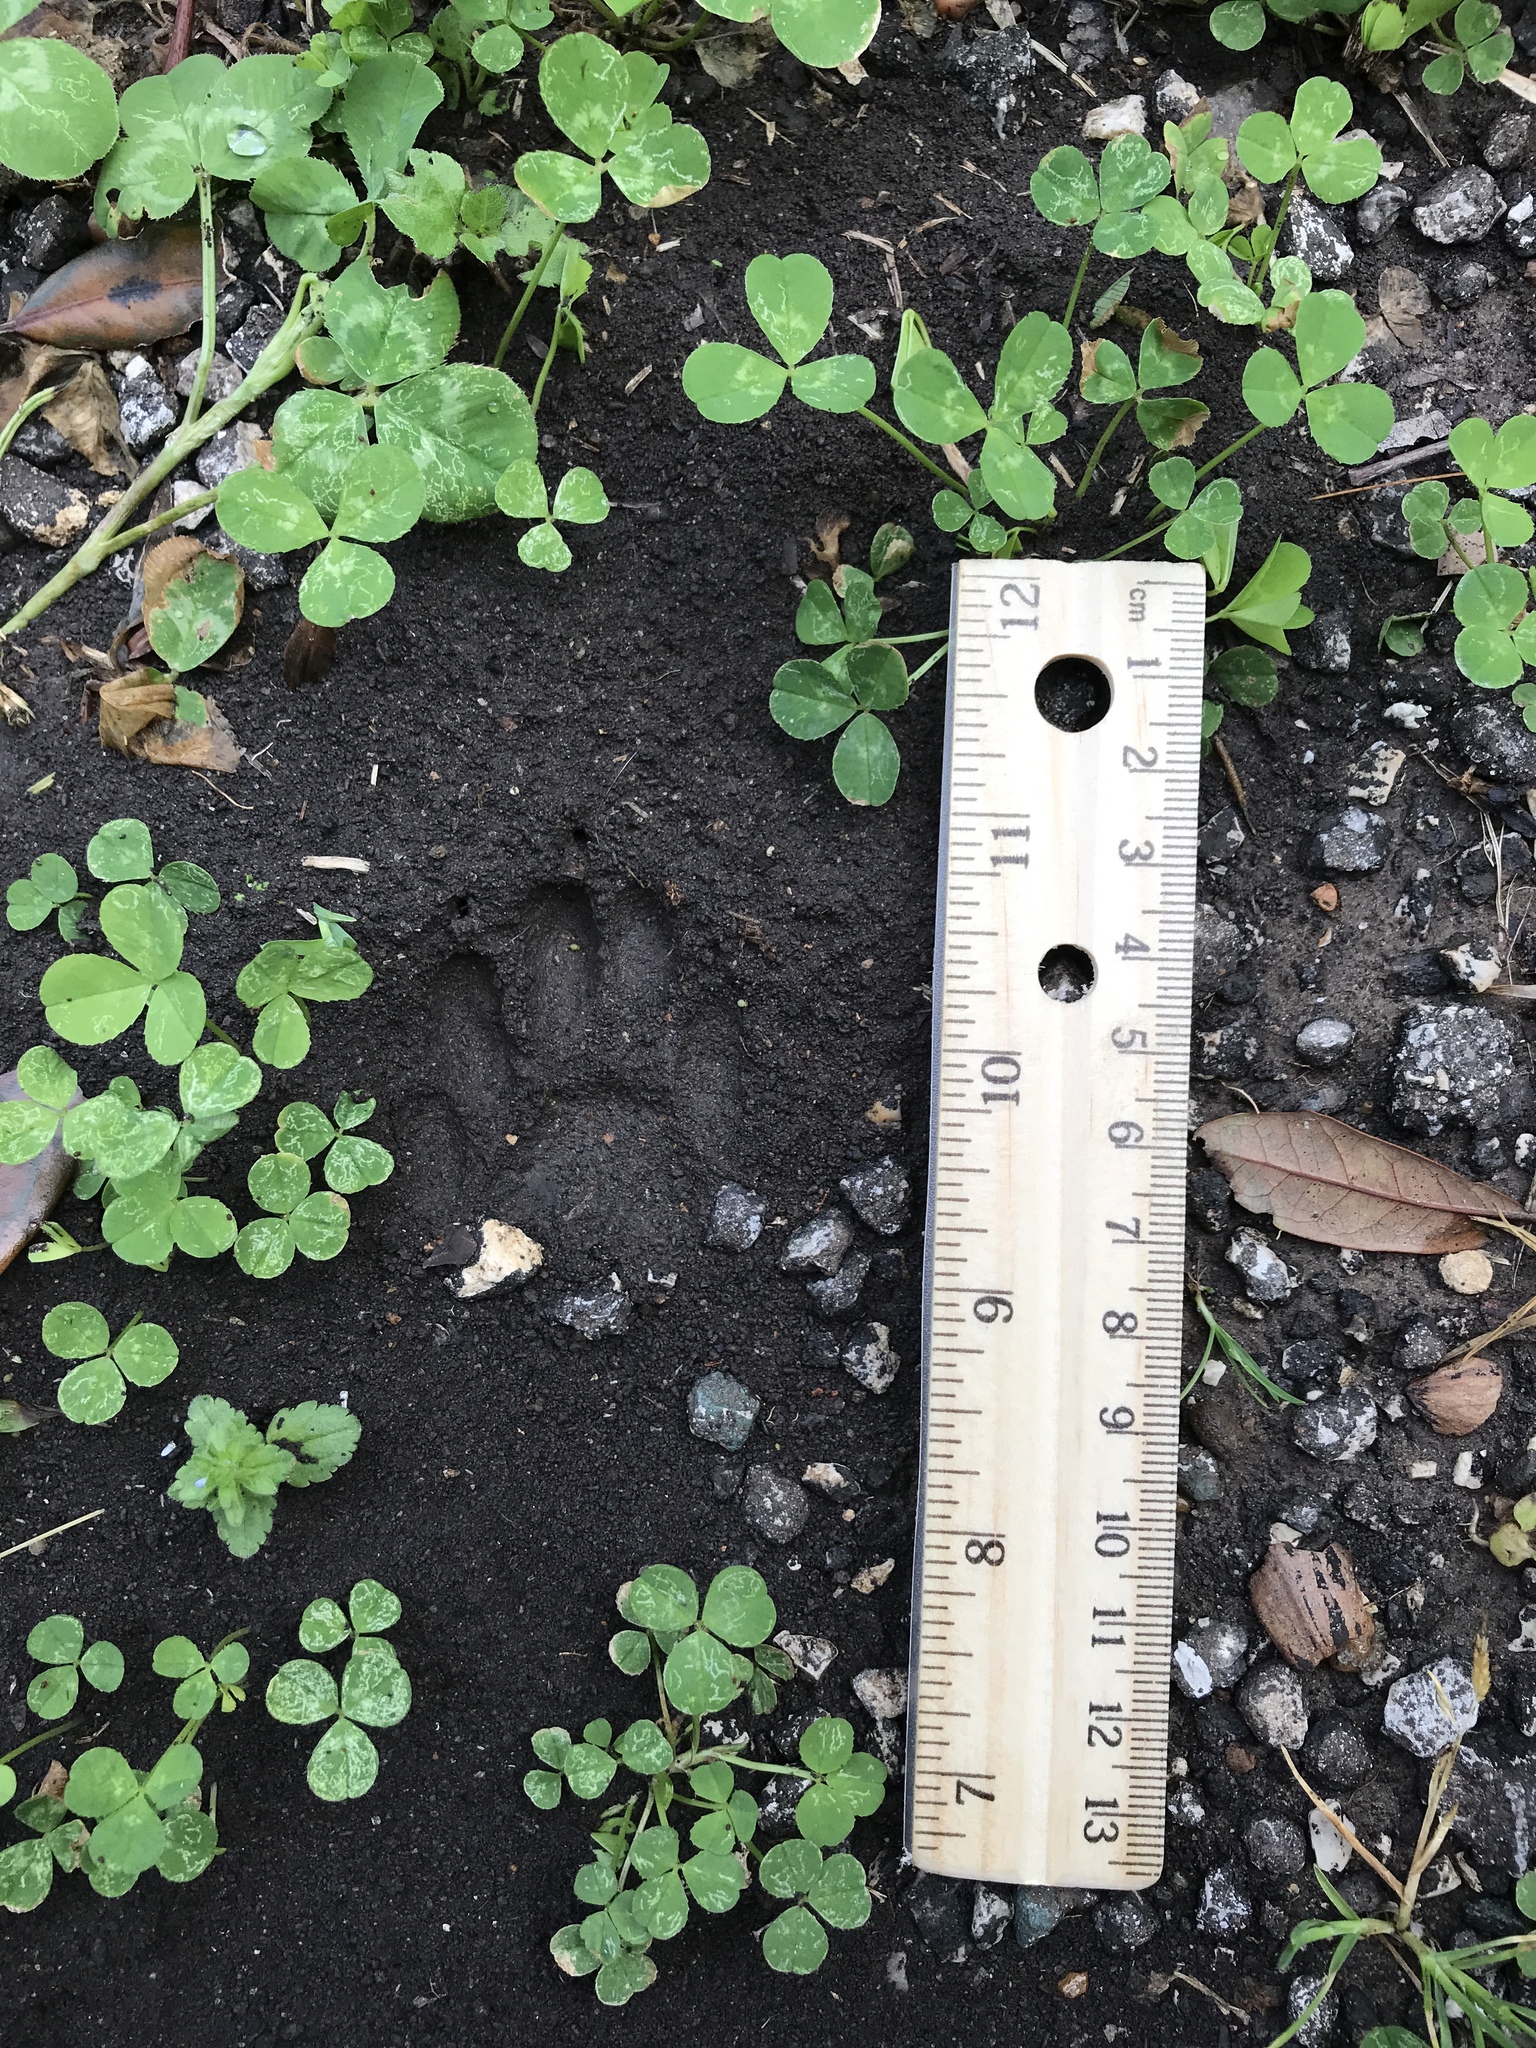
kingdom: Animalia
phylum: Chordata
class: Mammalia
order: Carnivora
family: Procyonidae
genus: Procyon
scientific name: Procyon lotor
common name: Raccoon
